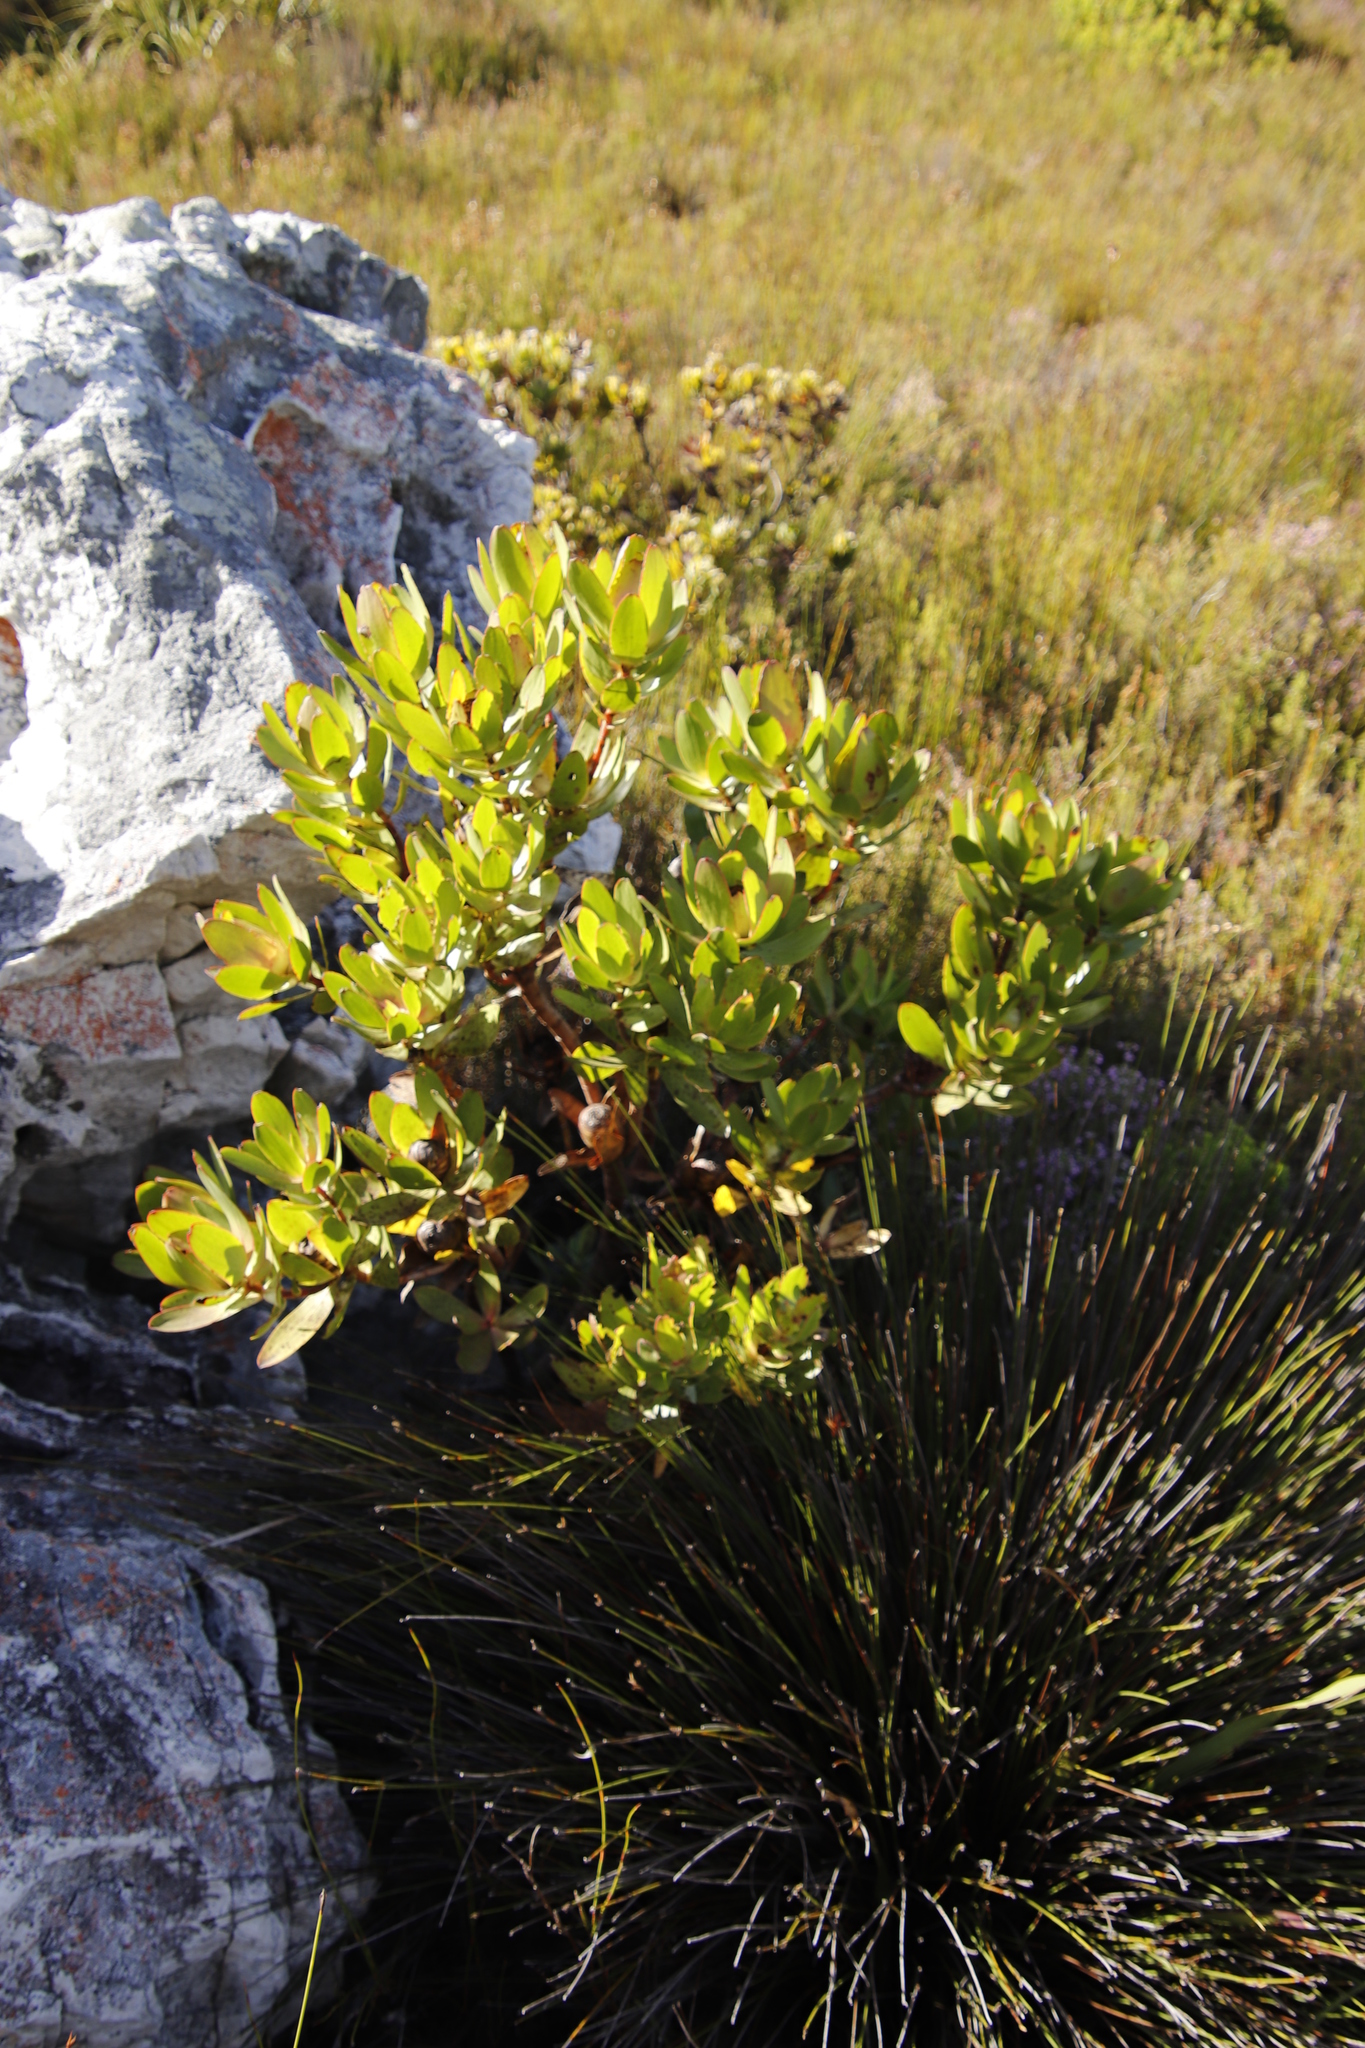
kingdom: Plantae
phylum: Tracheophyta
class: Magnoliopsida
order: Proteales
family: Proteaceae
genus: Leucadendron
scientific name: Leucadendron gandogeri
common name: Broad-leaf conebush
